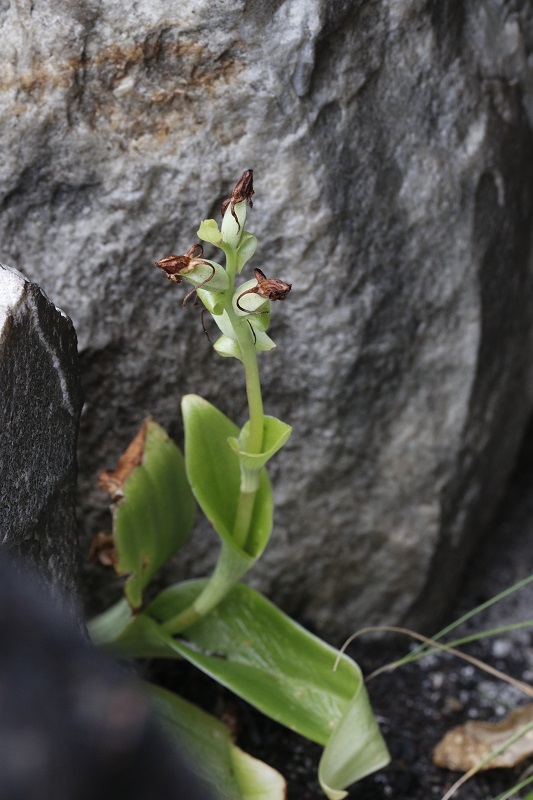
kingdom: Plantae
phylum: Tracheophyta
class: Liliopsida
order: Asparagales
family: Orchidaceae
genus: Satyrium
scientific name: Satyrium odorum
